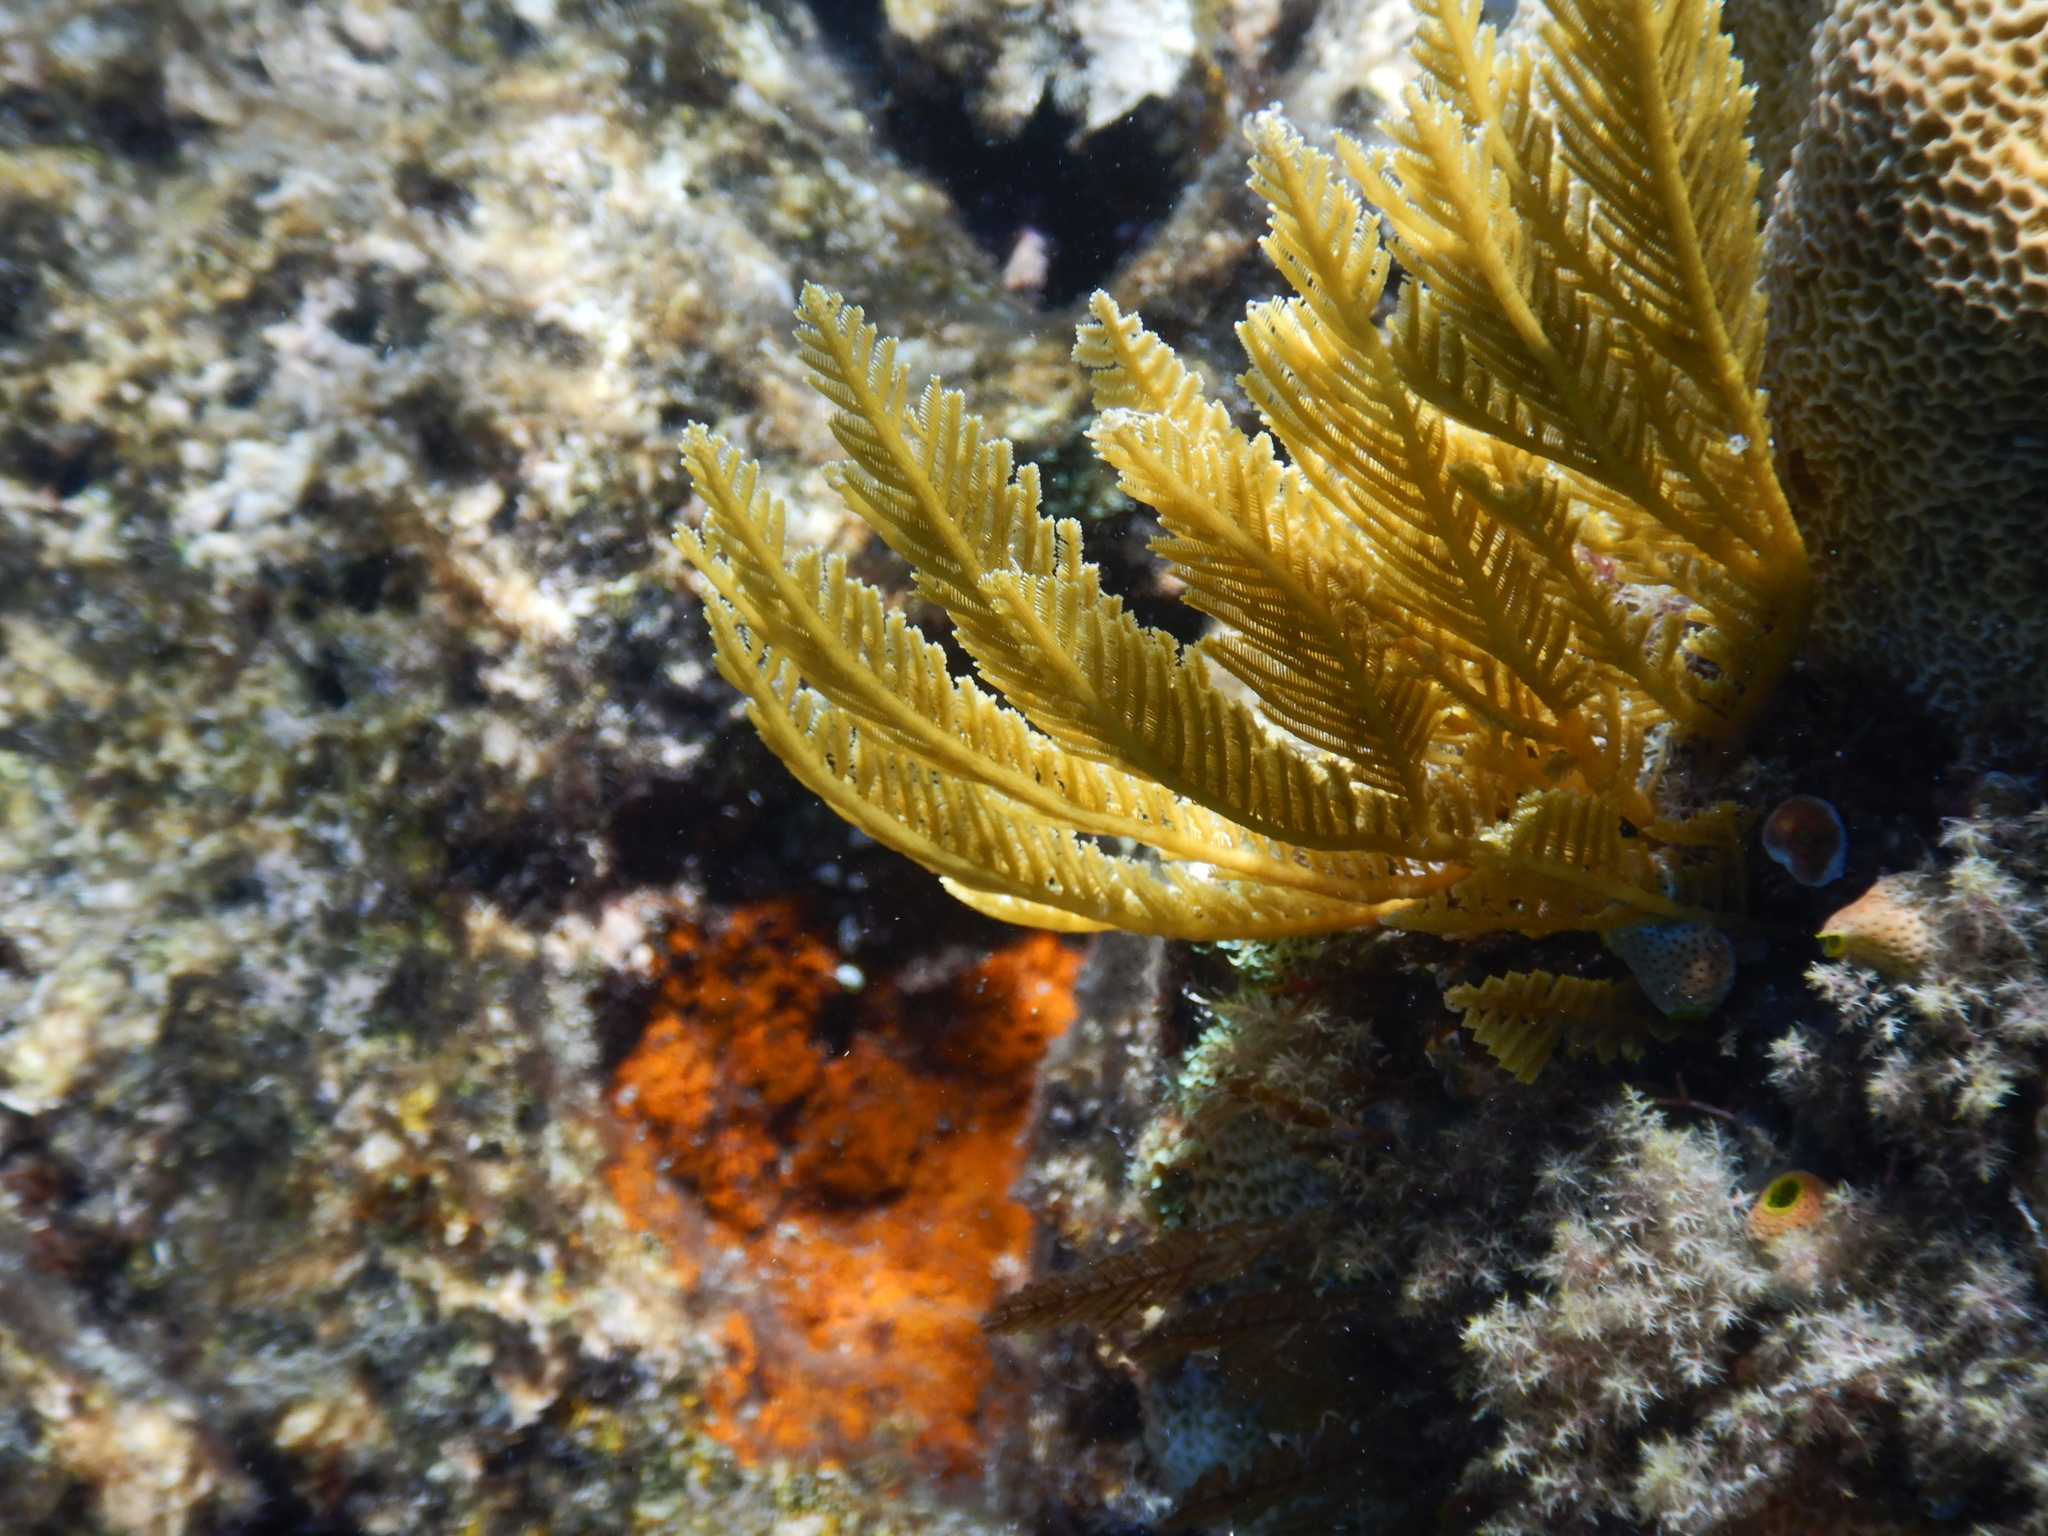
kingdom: Animalia
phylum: Cnidaria
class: Hydrozoa
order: Leptothecata
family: Aglaopheniidae
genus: Pachyrhynchia
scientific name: Pachyrhynchia cuppressina
